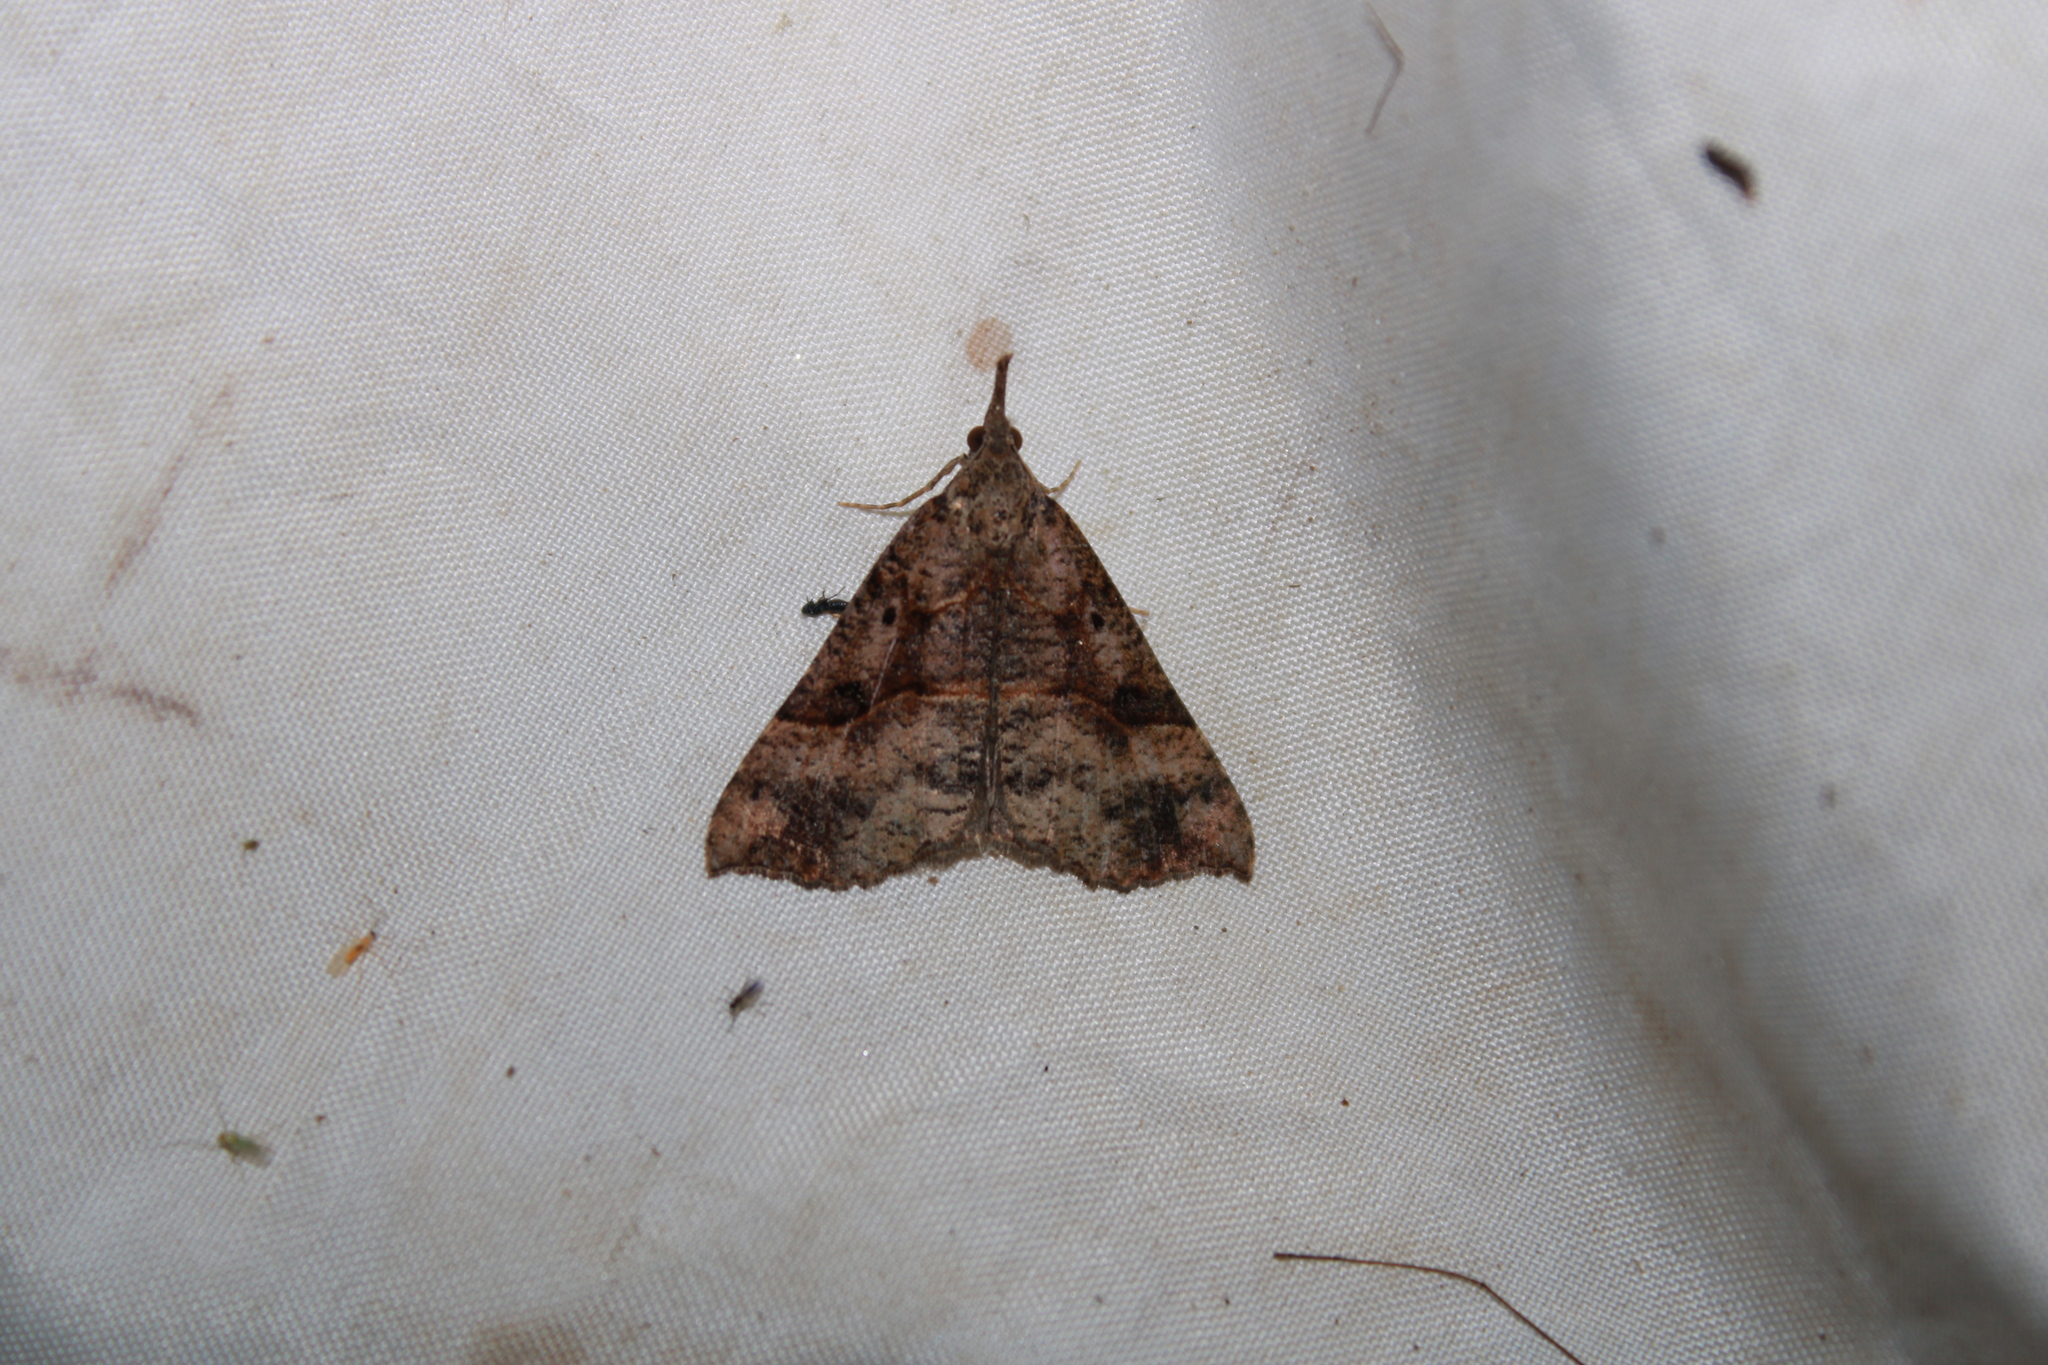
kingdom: Animalia
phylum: Arthropoda
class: Insecta
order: Lepidoptera
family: Erebidae
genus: Hypena
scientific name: Hypena edictalis
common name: Large snout
